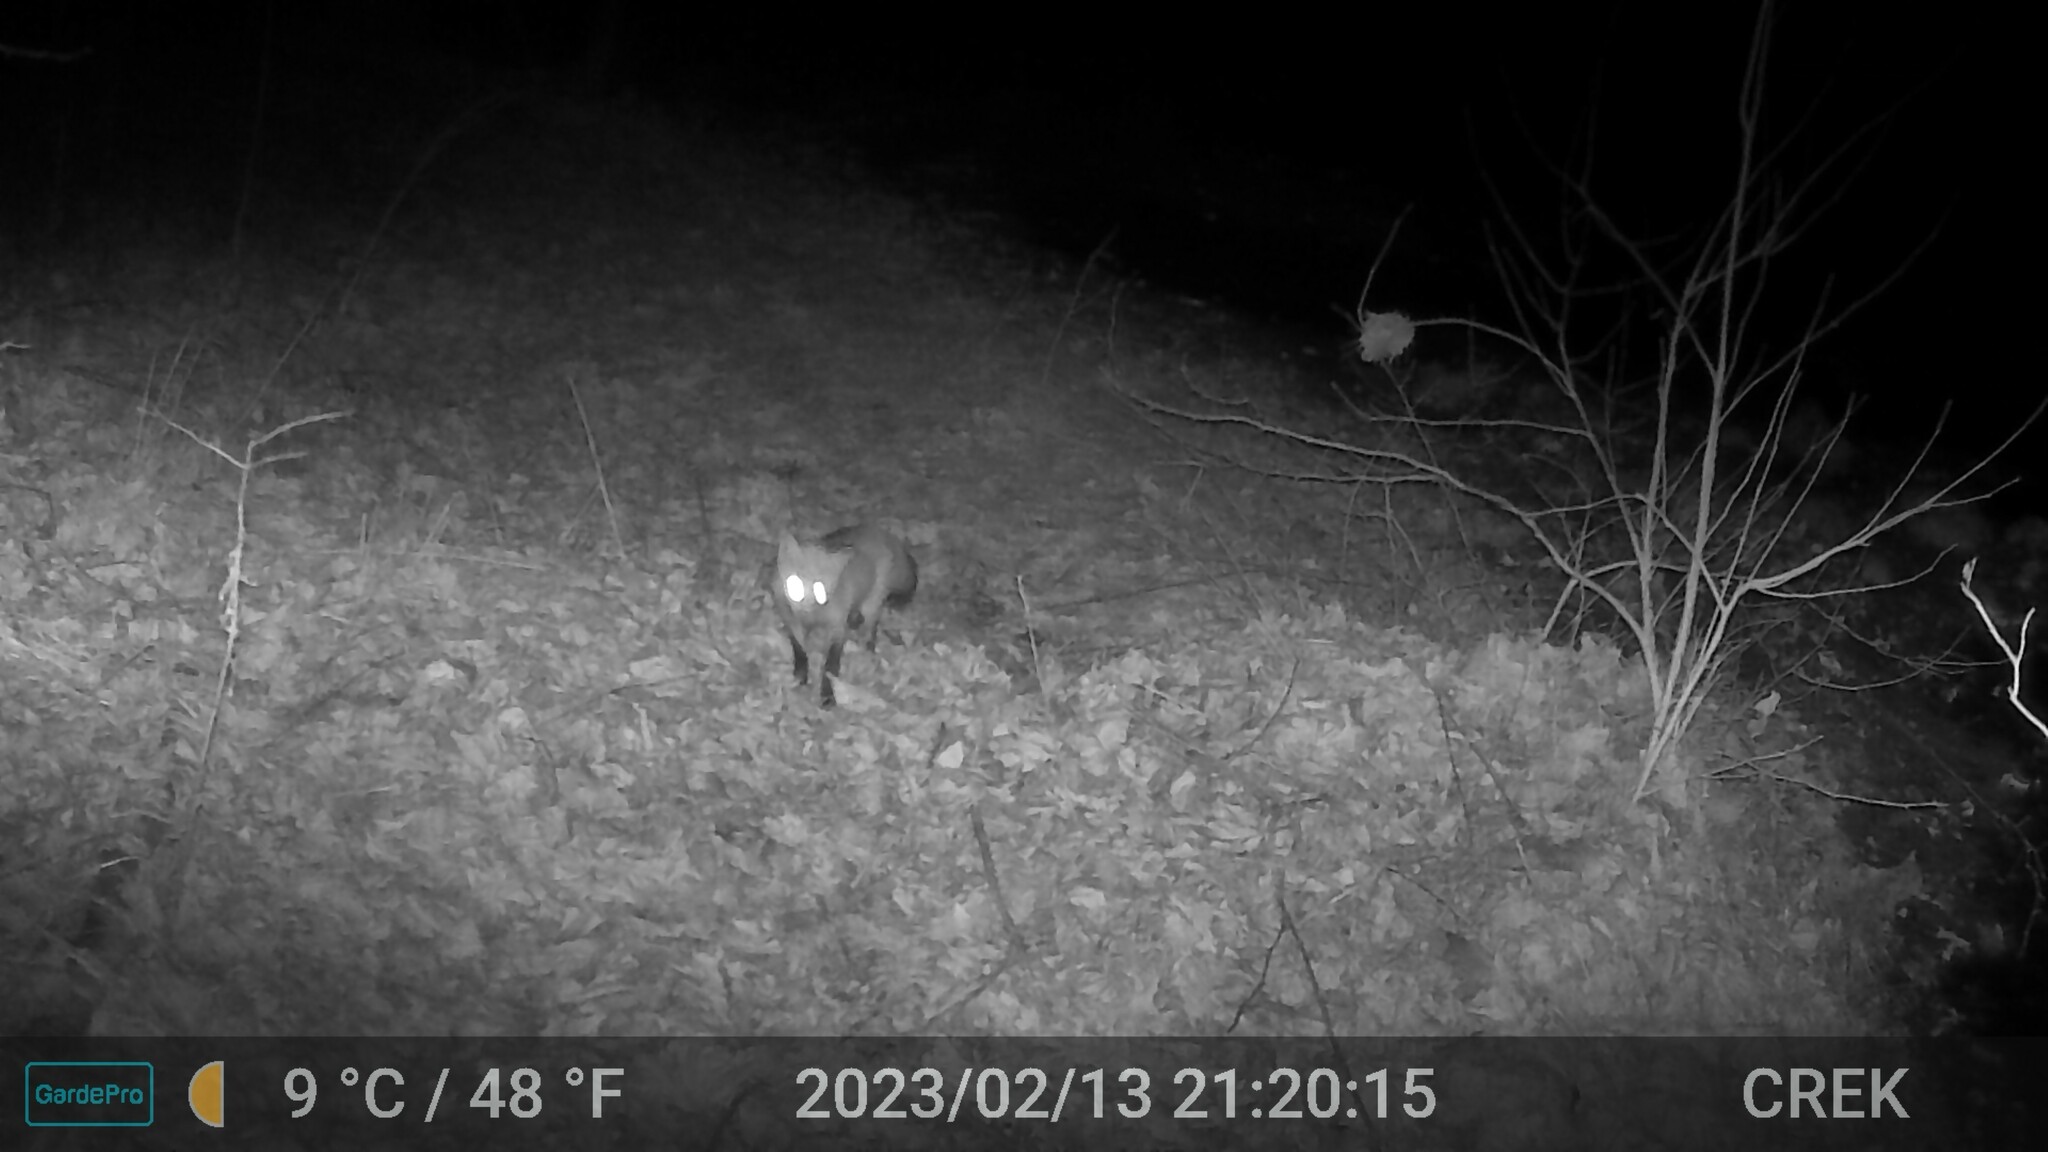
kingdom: Animalia
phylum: Chordata
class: Mammalia
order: Carnivora
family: Canidae
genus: Vulpes
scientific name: Vulpes vulpes
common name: Red fox
